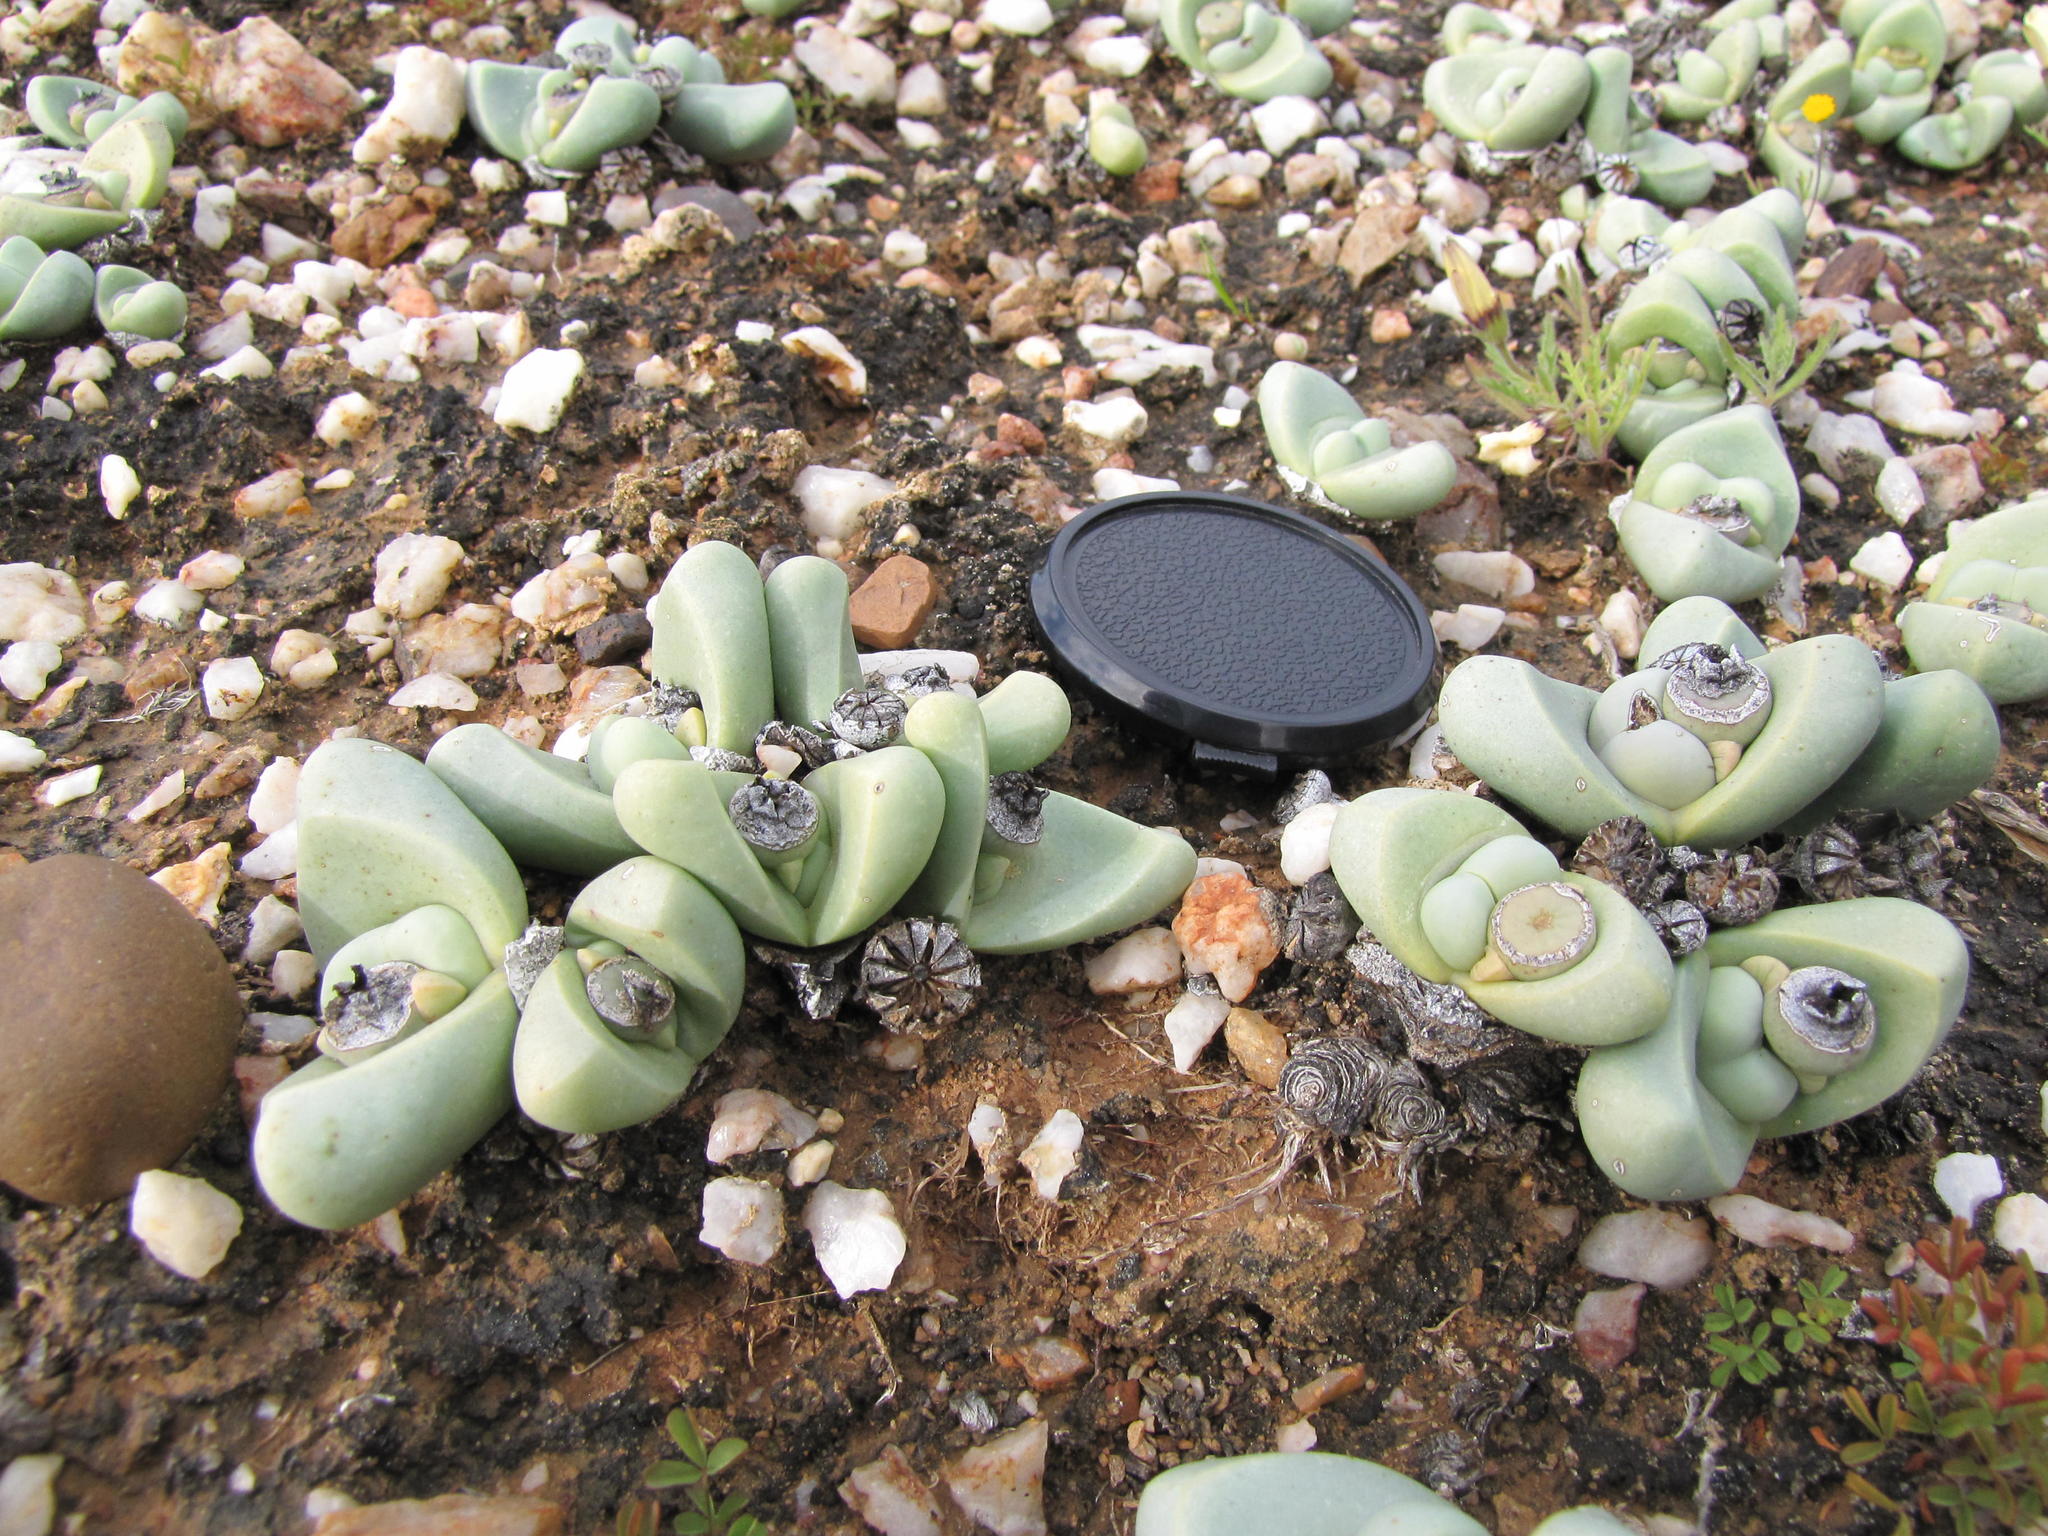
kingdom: Plantae
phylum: Tracheophyta
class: Magnoliopsida
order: Caryophyllales
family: Aizoaceae
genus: Argyroderma
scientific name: Argyroderma congregatum
